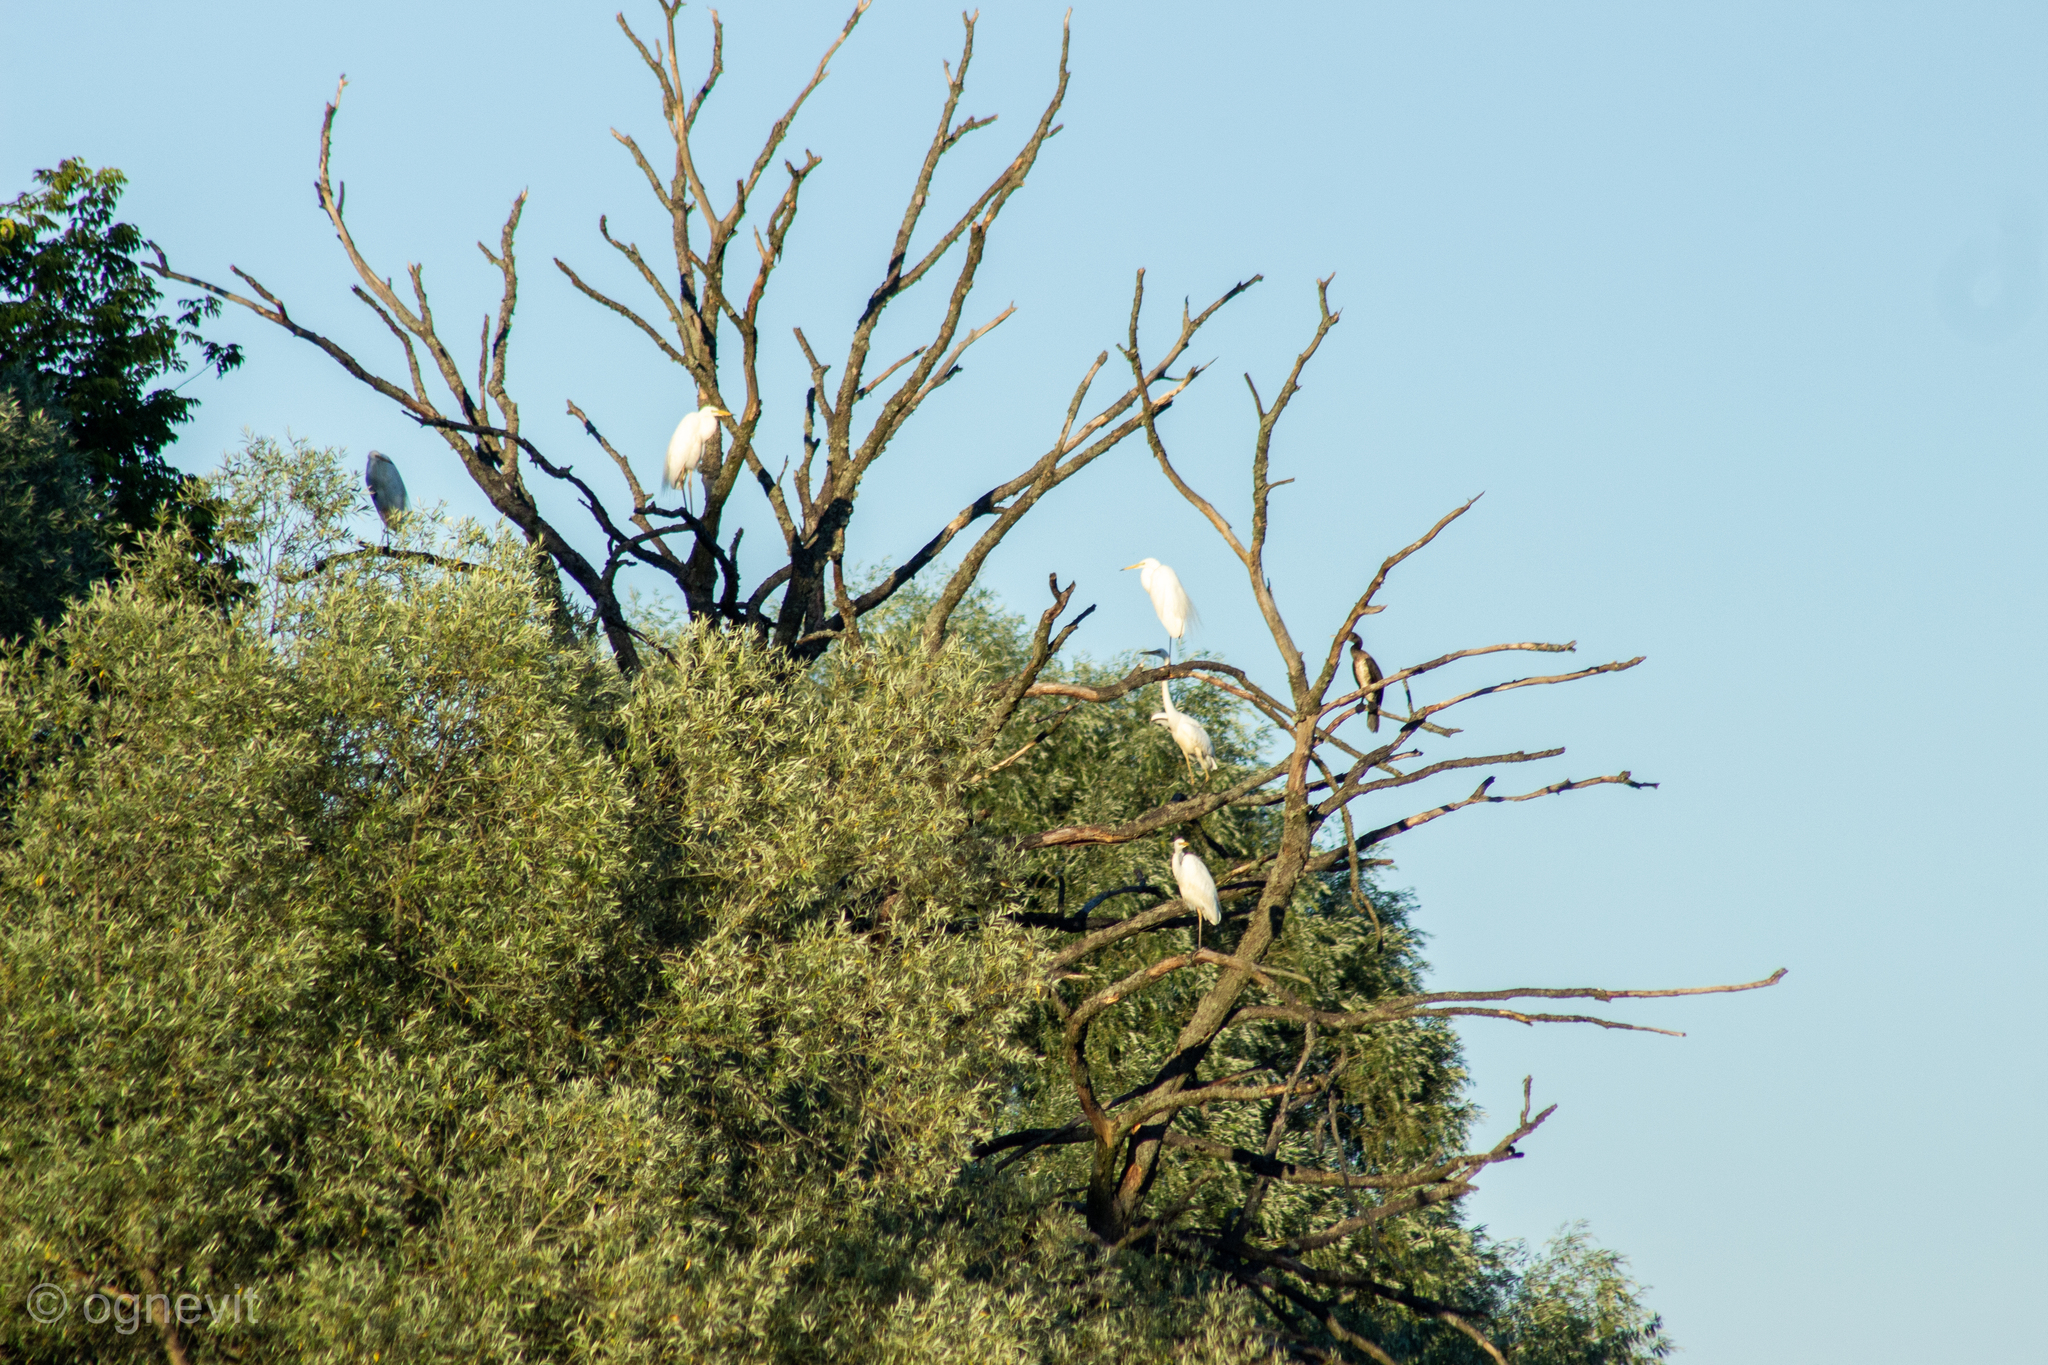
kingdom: Animalia
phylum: Chordata
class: Aves
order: Pelecaniformes
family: Ardeidae
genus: Ardea
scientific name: Ardea alba
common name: Great egret
